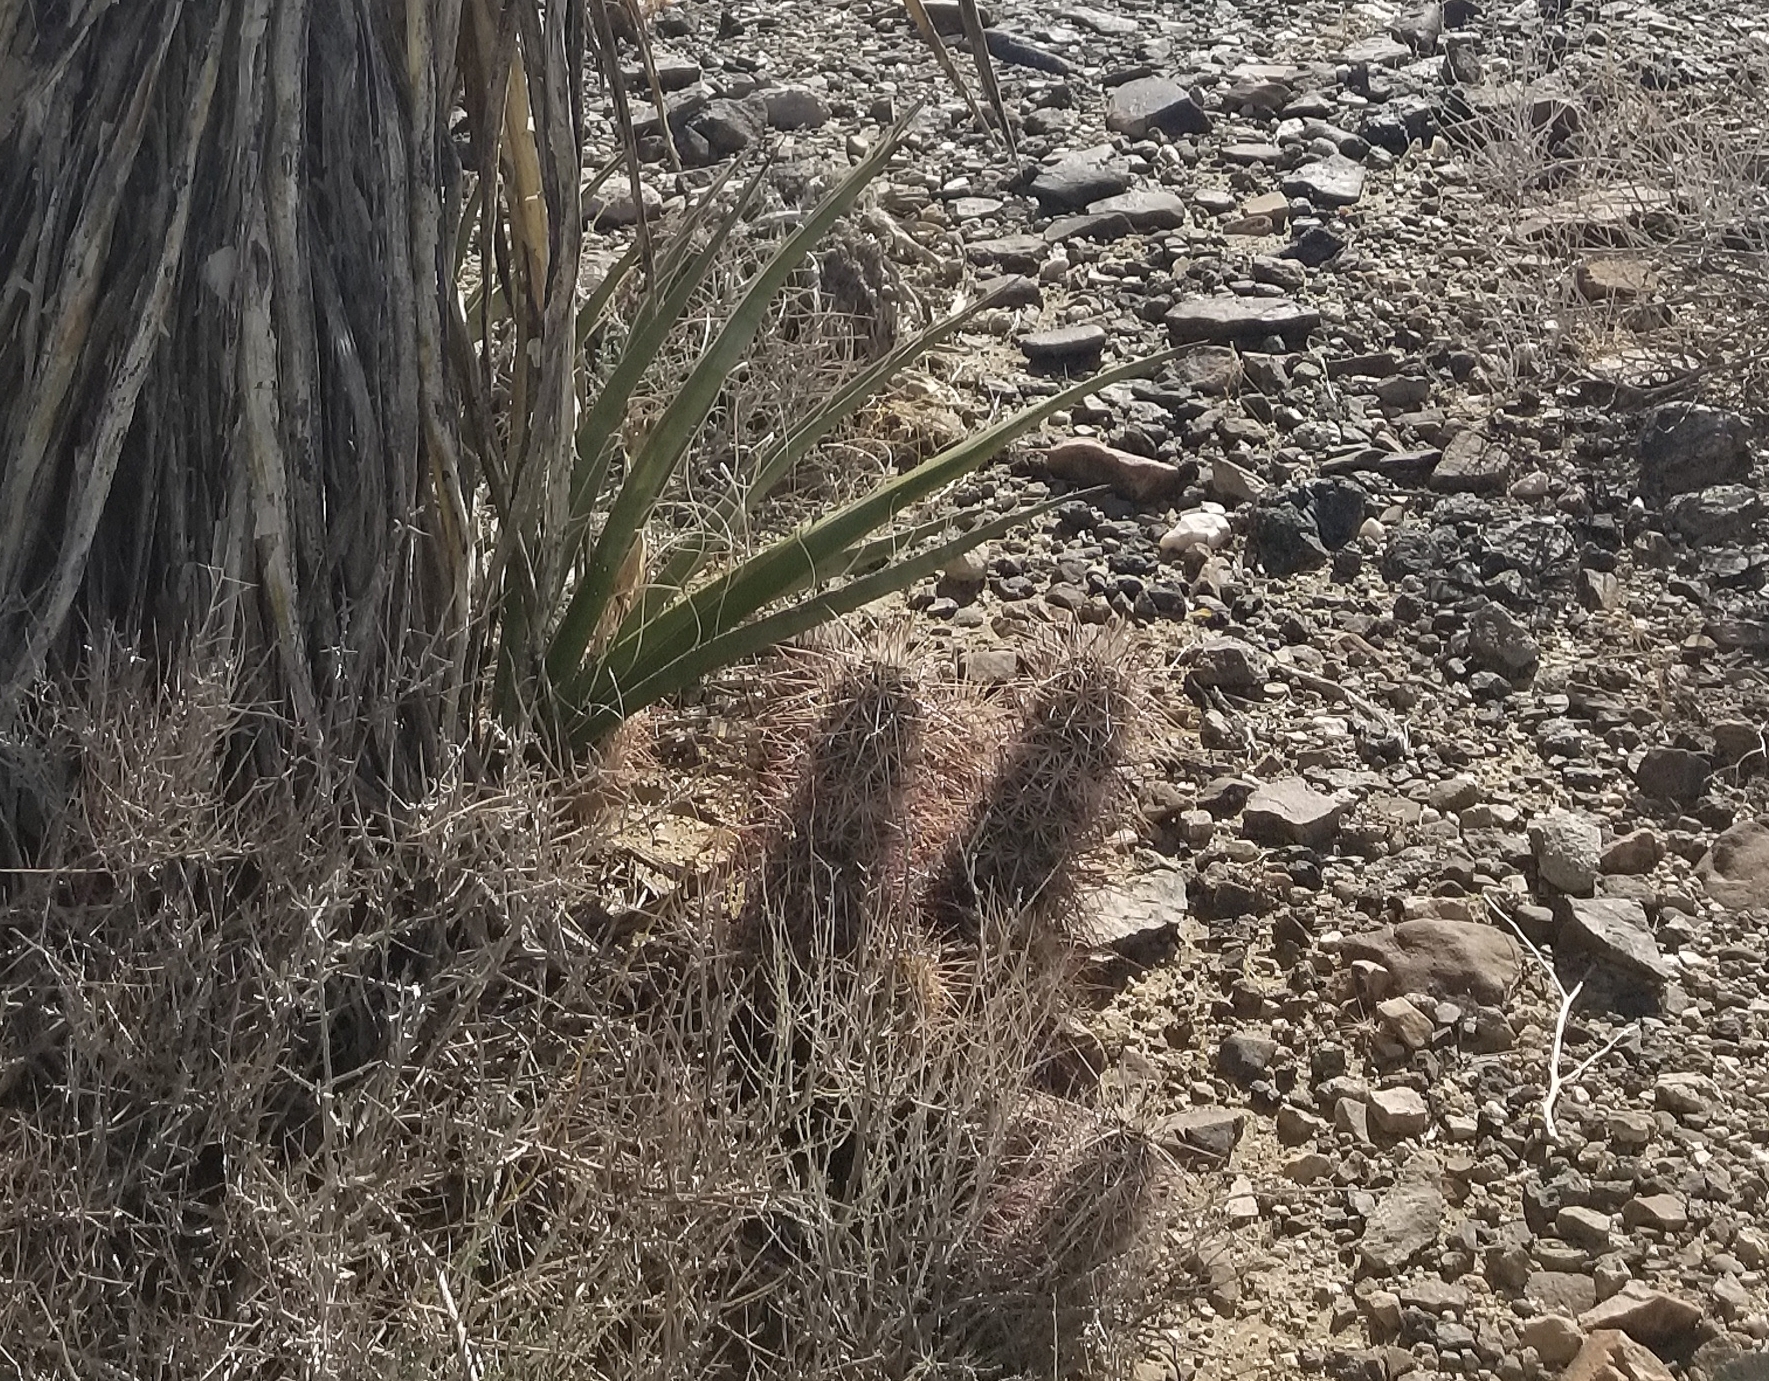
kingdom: Plantae
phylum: Tracheophyta
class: Magnoliopsida
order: Caryophyllales
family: Cactaceae
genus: Echinocereus
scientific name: Echinocereus engelmannii
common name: Engelmann's hedgehog cactus
